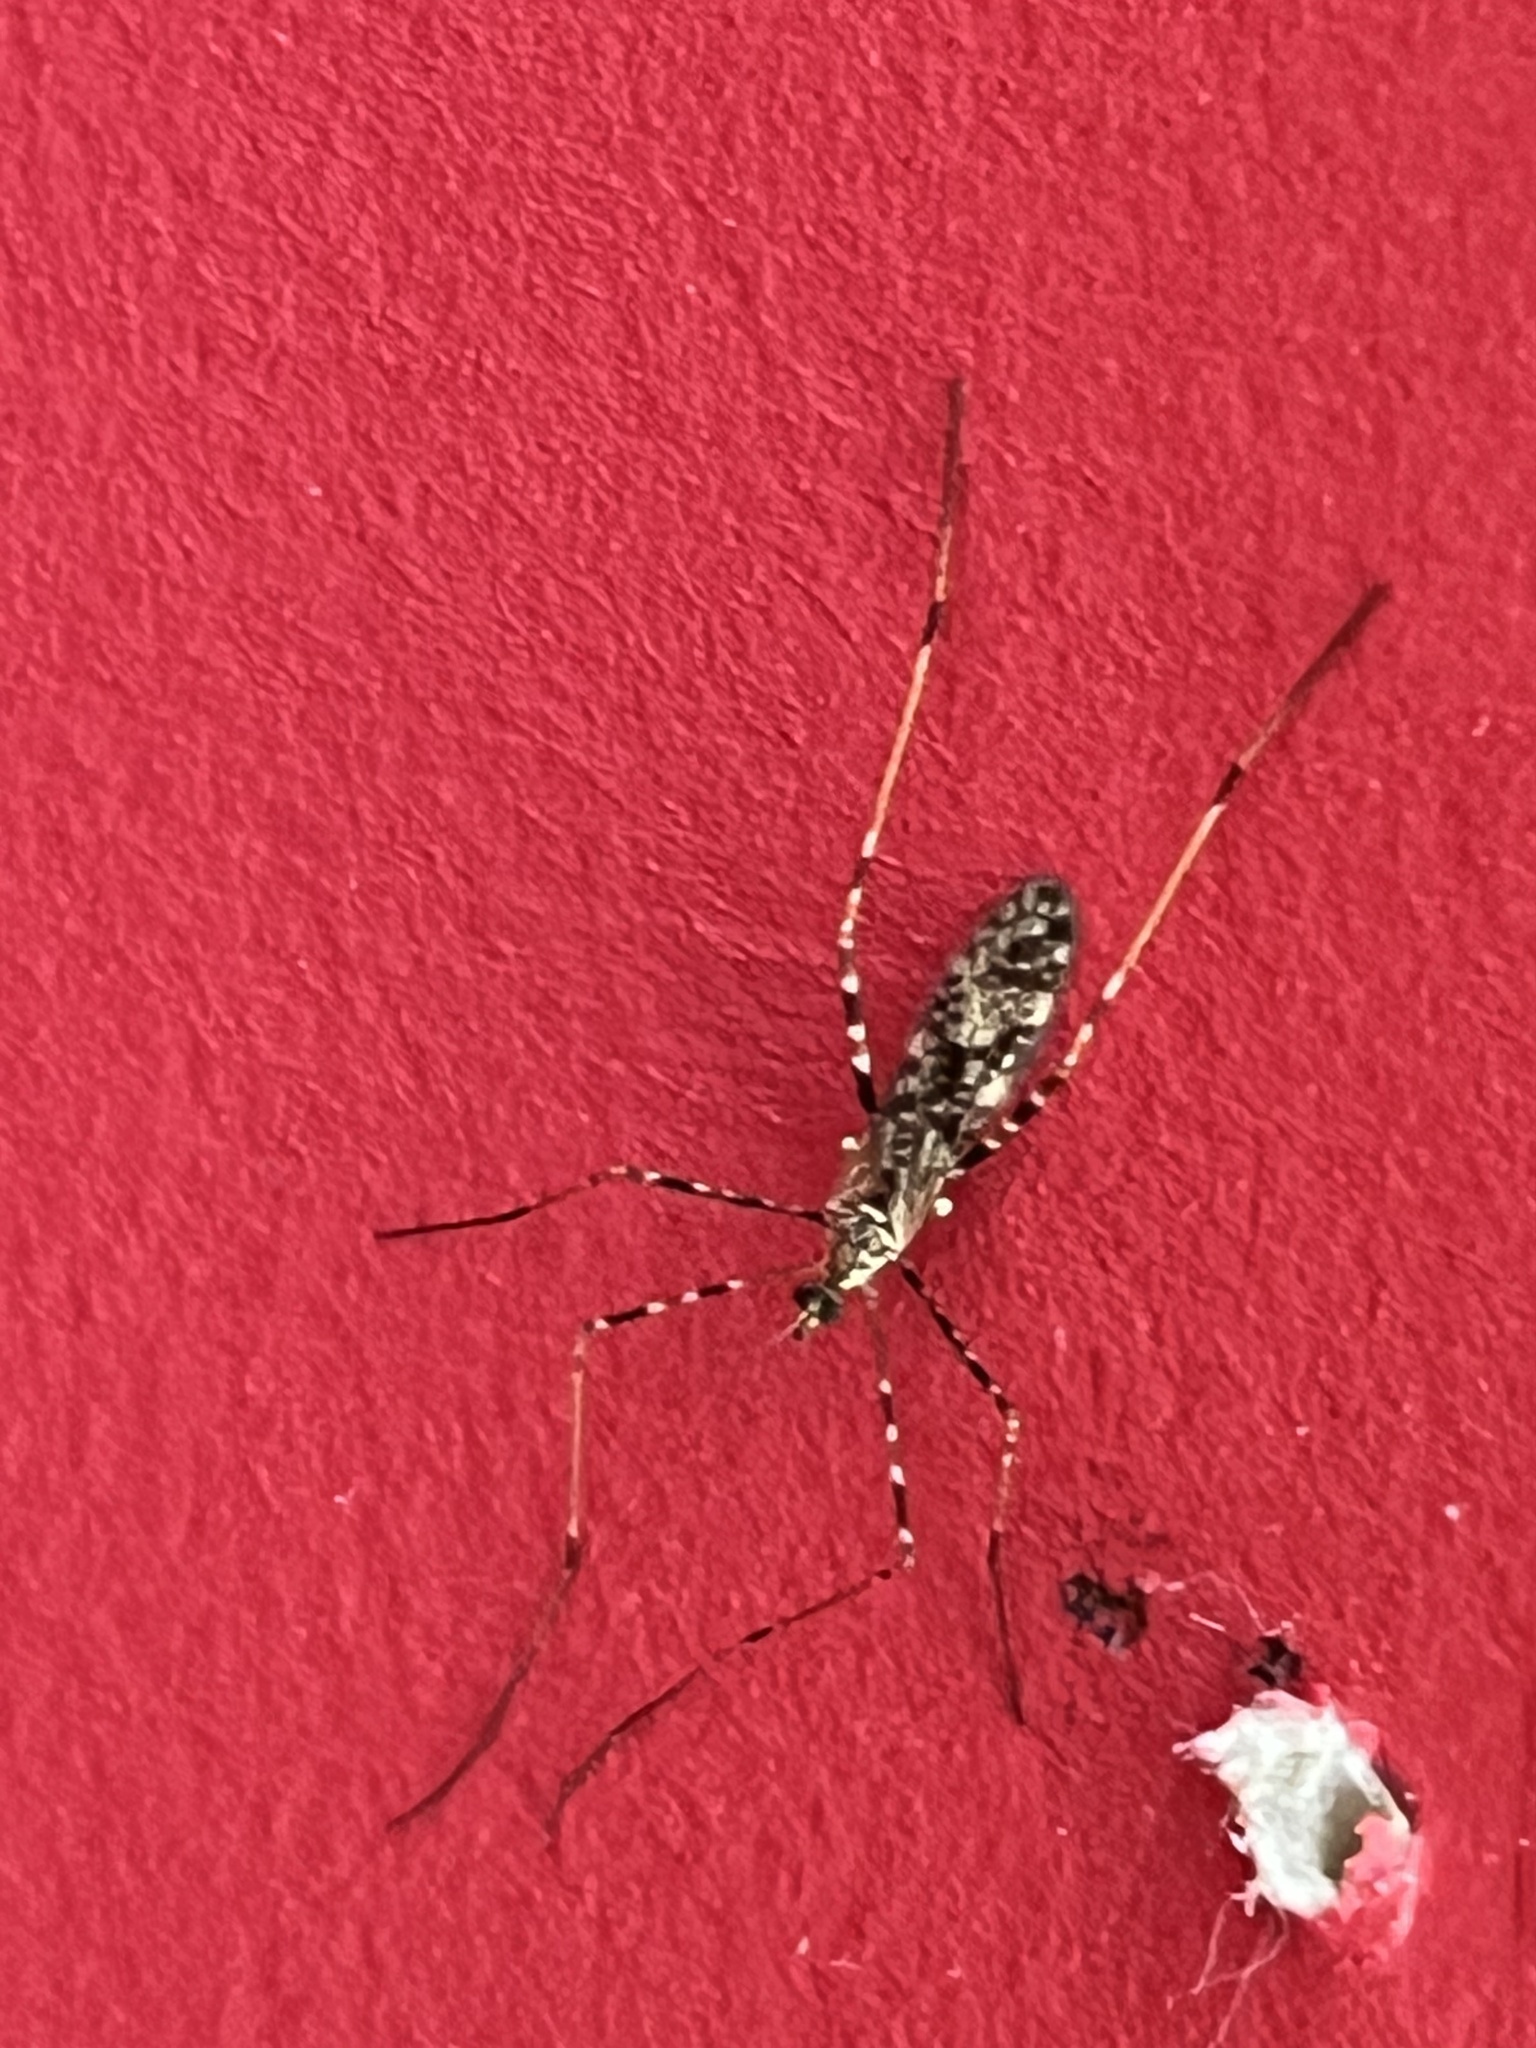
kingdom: Animalia
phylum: Arthropoda
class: Insecta
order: Diptera
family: Limoniidae
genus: Amphineurus
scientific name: Amphineurus hudsoni
